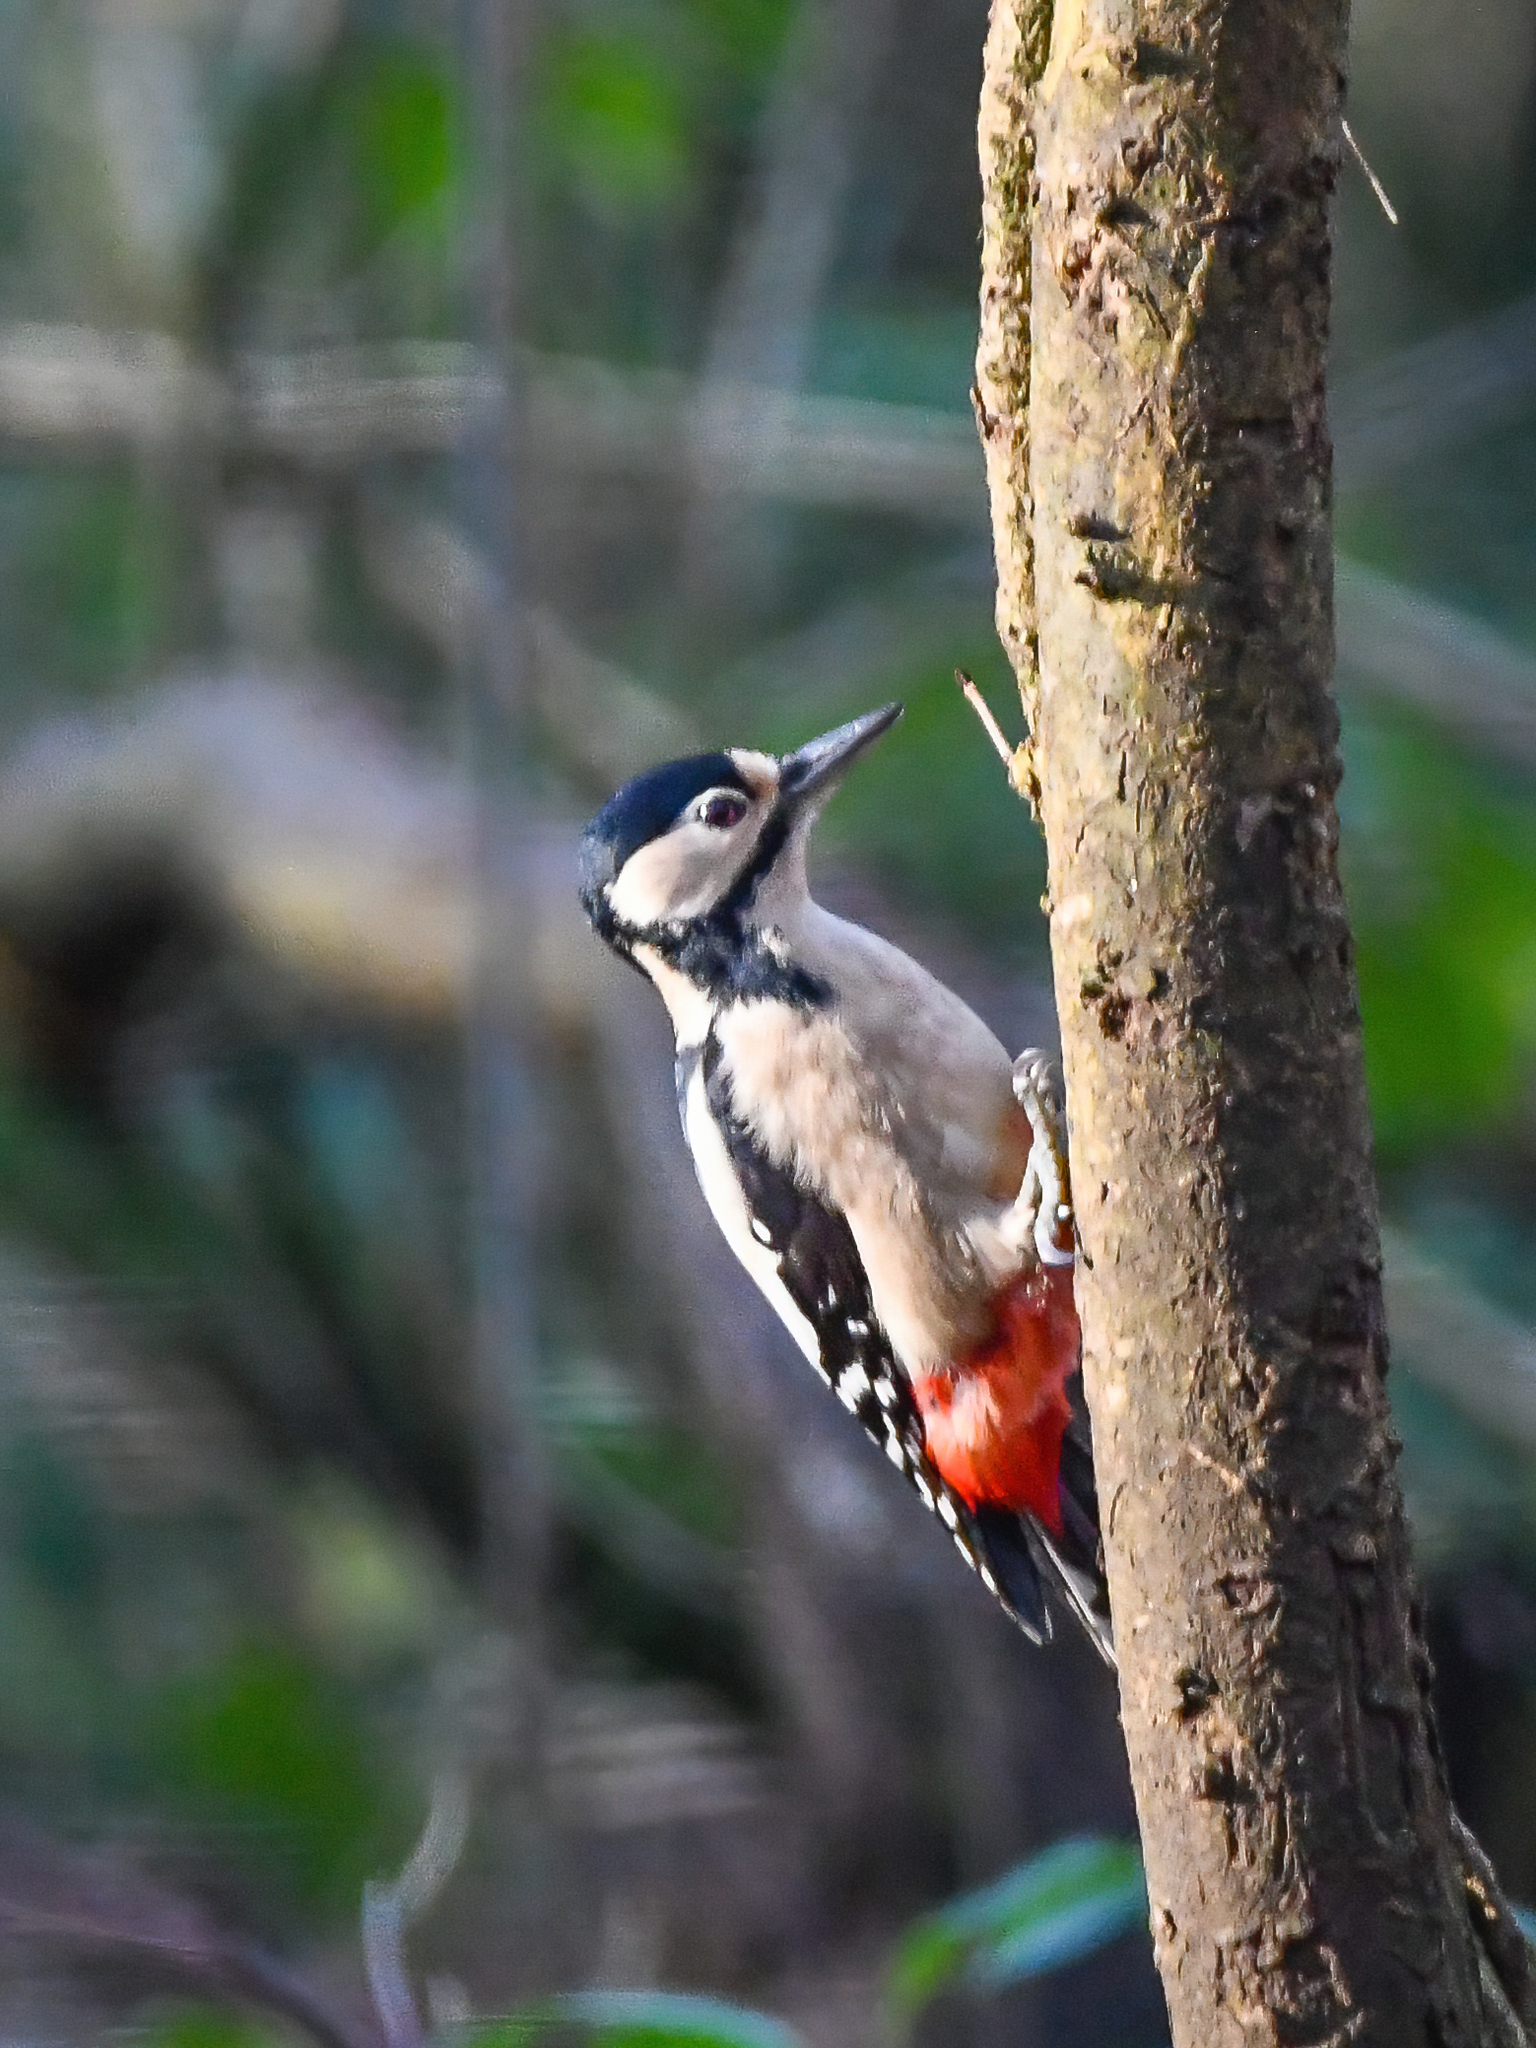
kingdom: Animalia
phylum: Chordata
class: Aves
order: Piciformes
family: Picidae
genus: Dendrocopos
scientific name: Dendrocopos major
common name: Great spotted woodpecker
